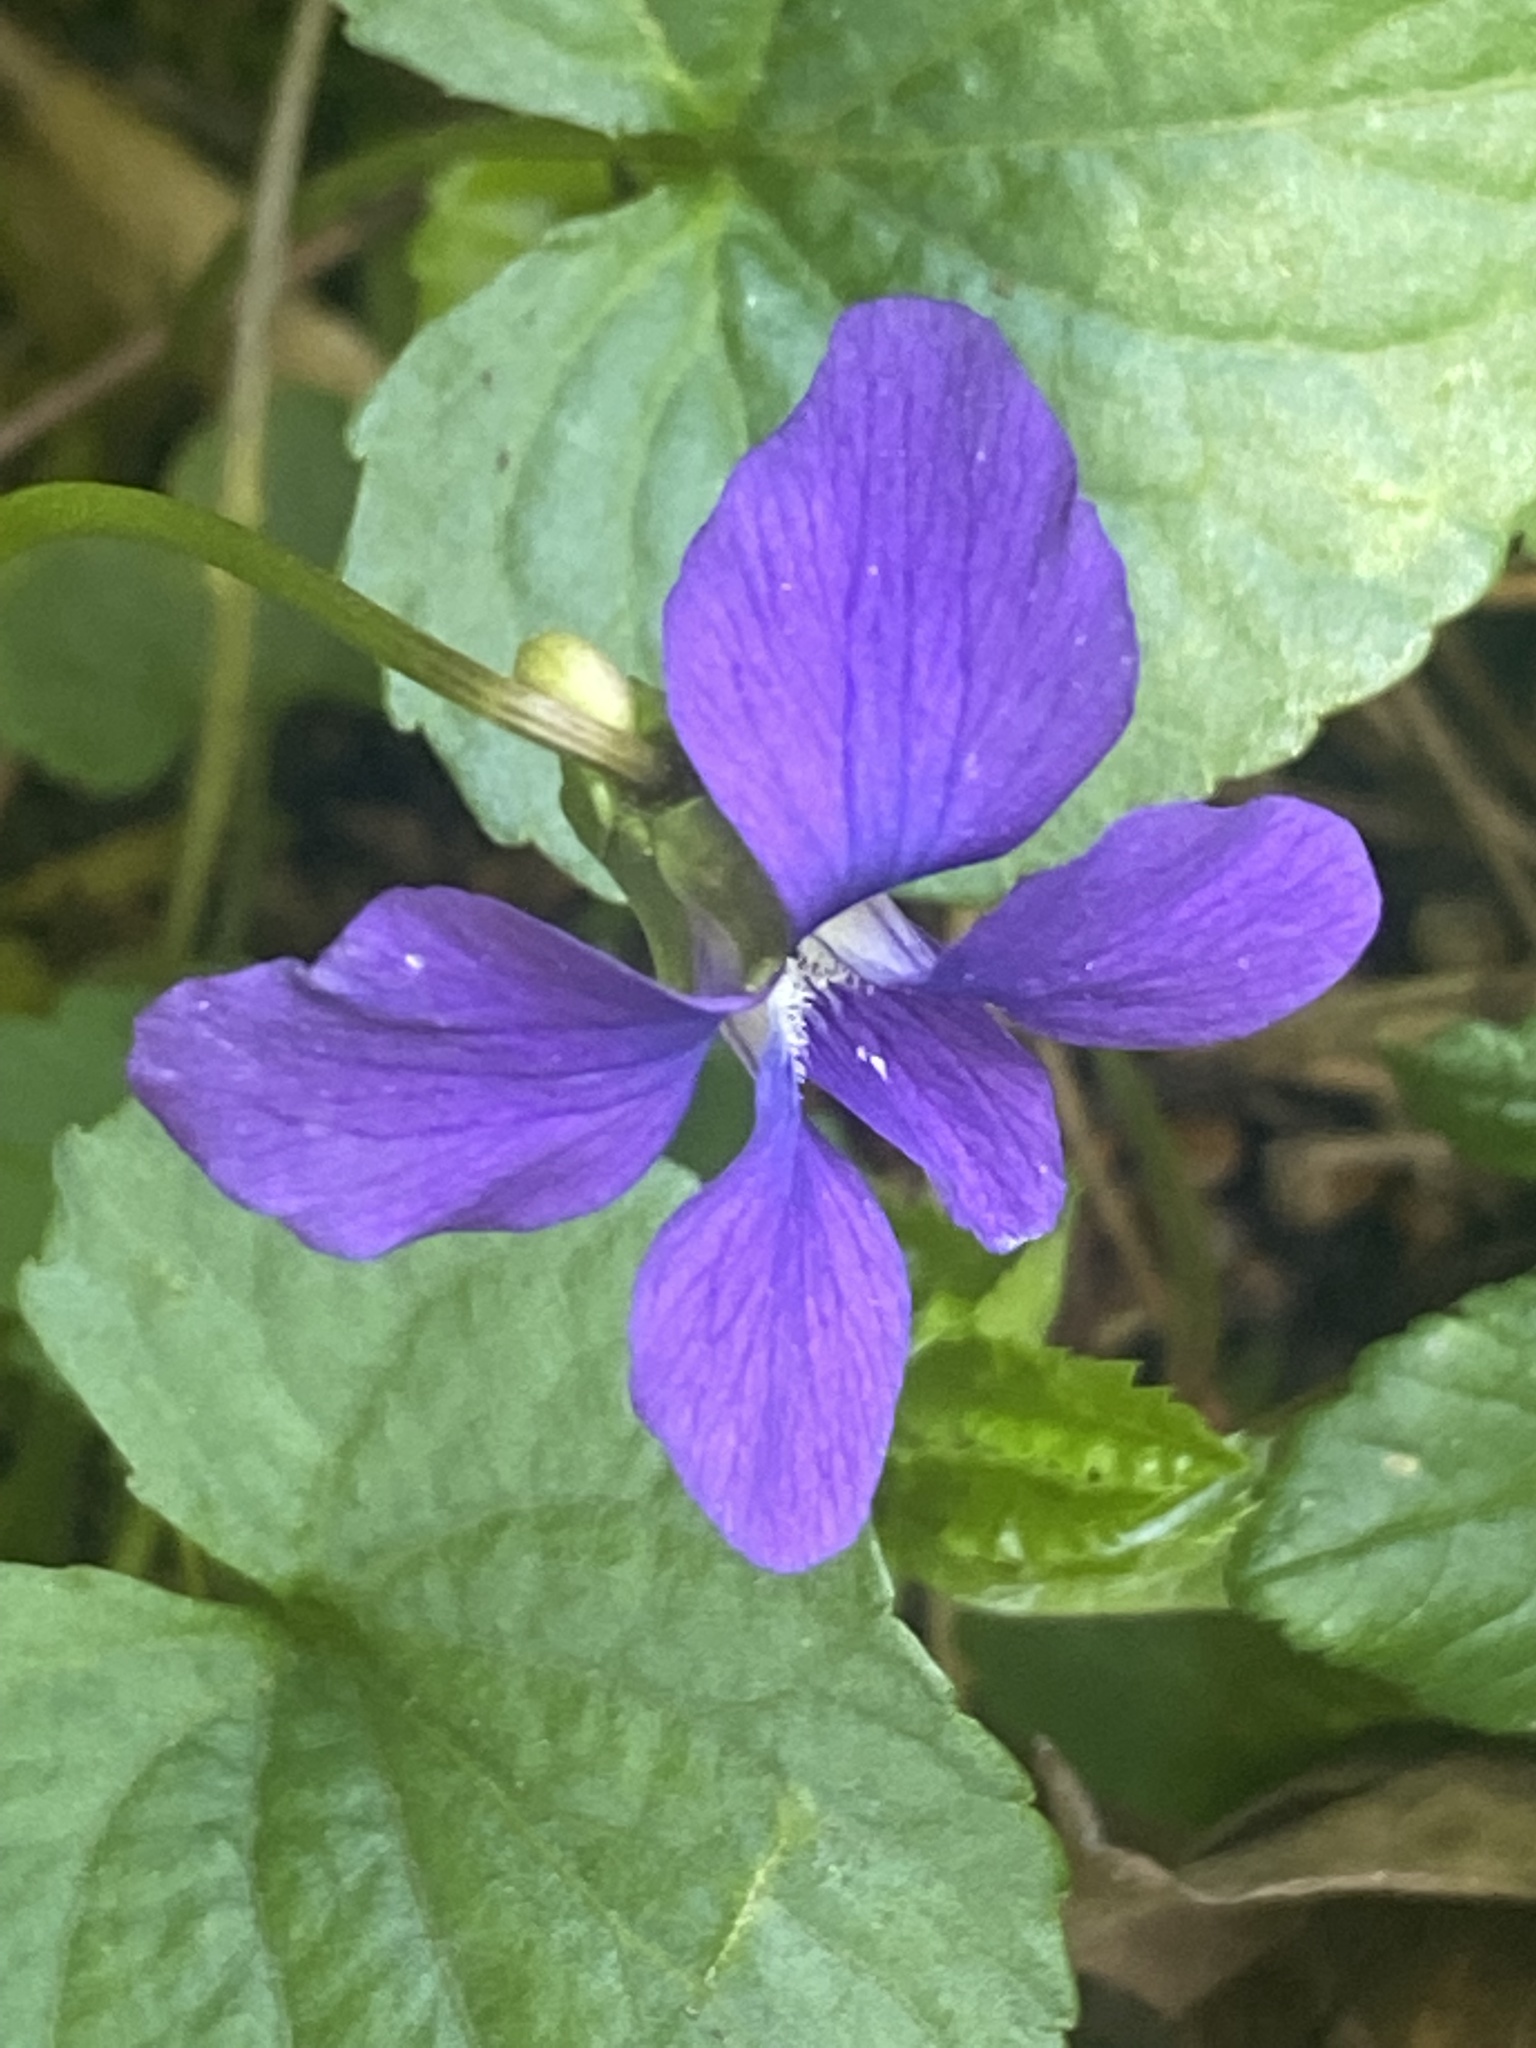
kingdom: Plantae
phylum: Tracheophyta
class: Magnoliopsida
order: Malpighiales
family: Violaceae
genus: Viola
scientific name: Viola sororia
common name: Dooryard violet
